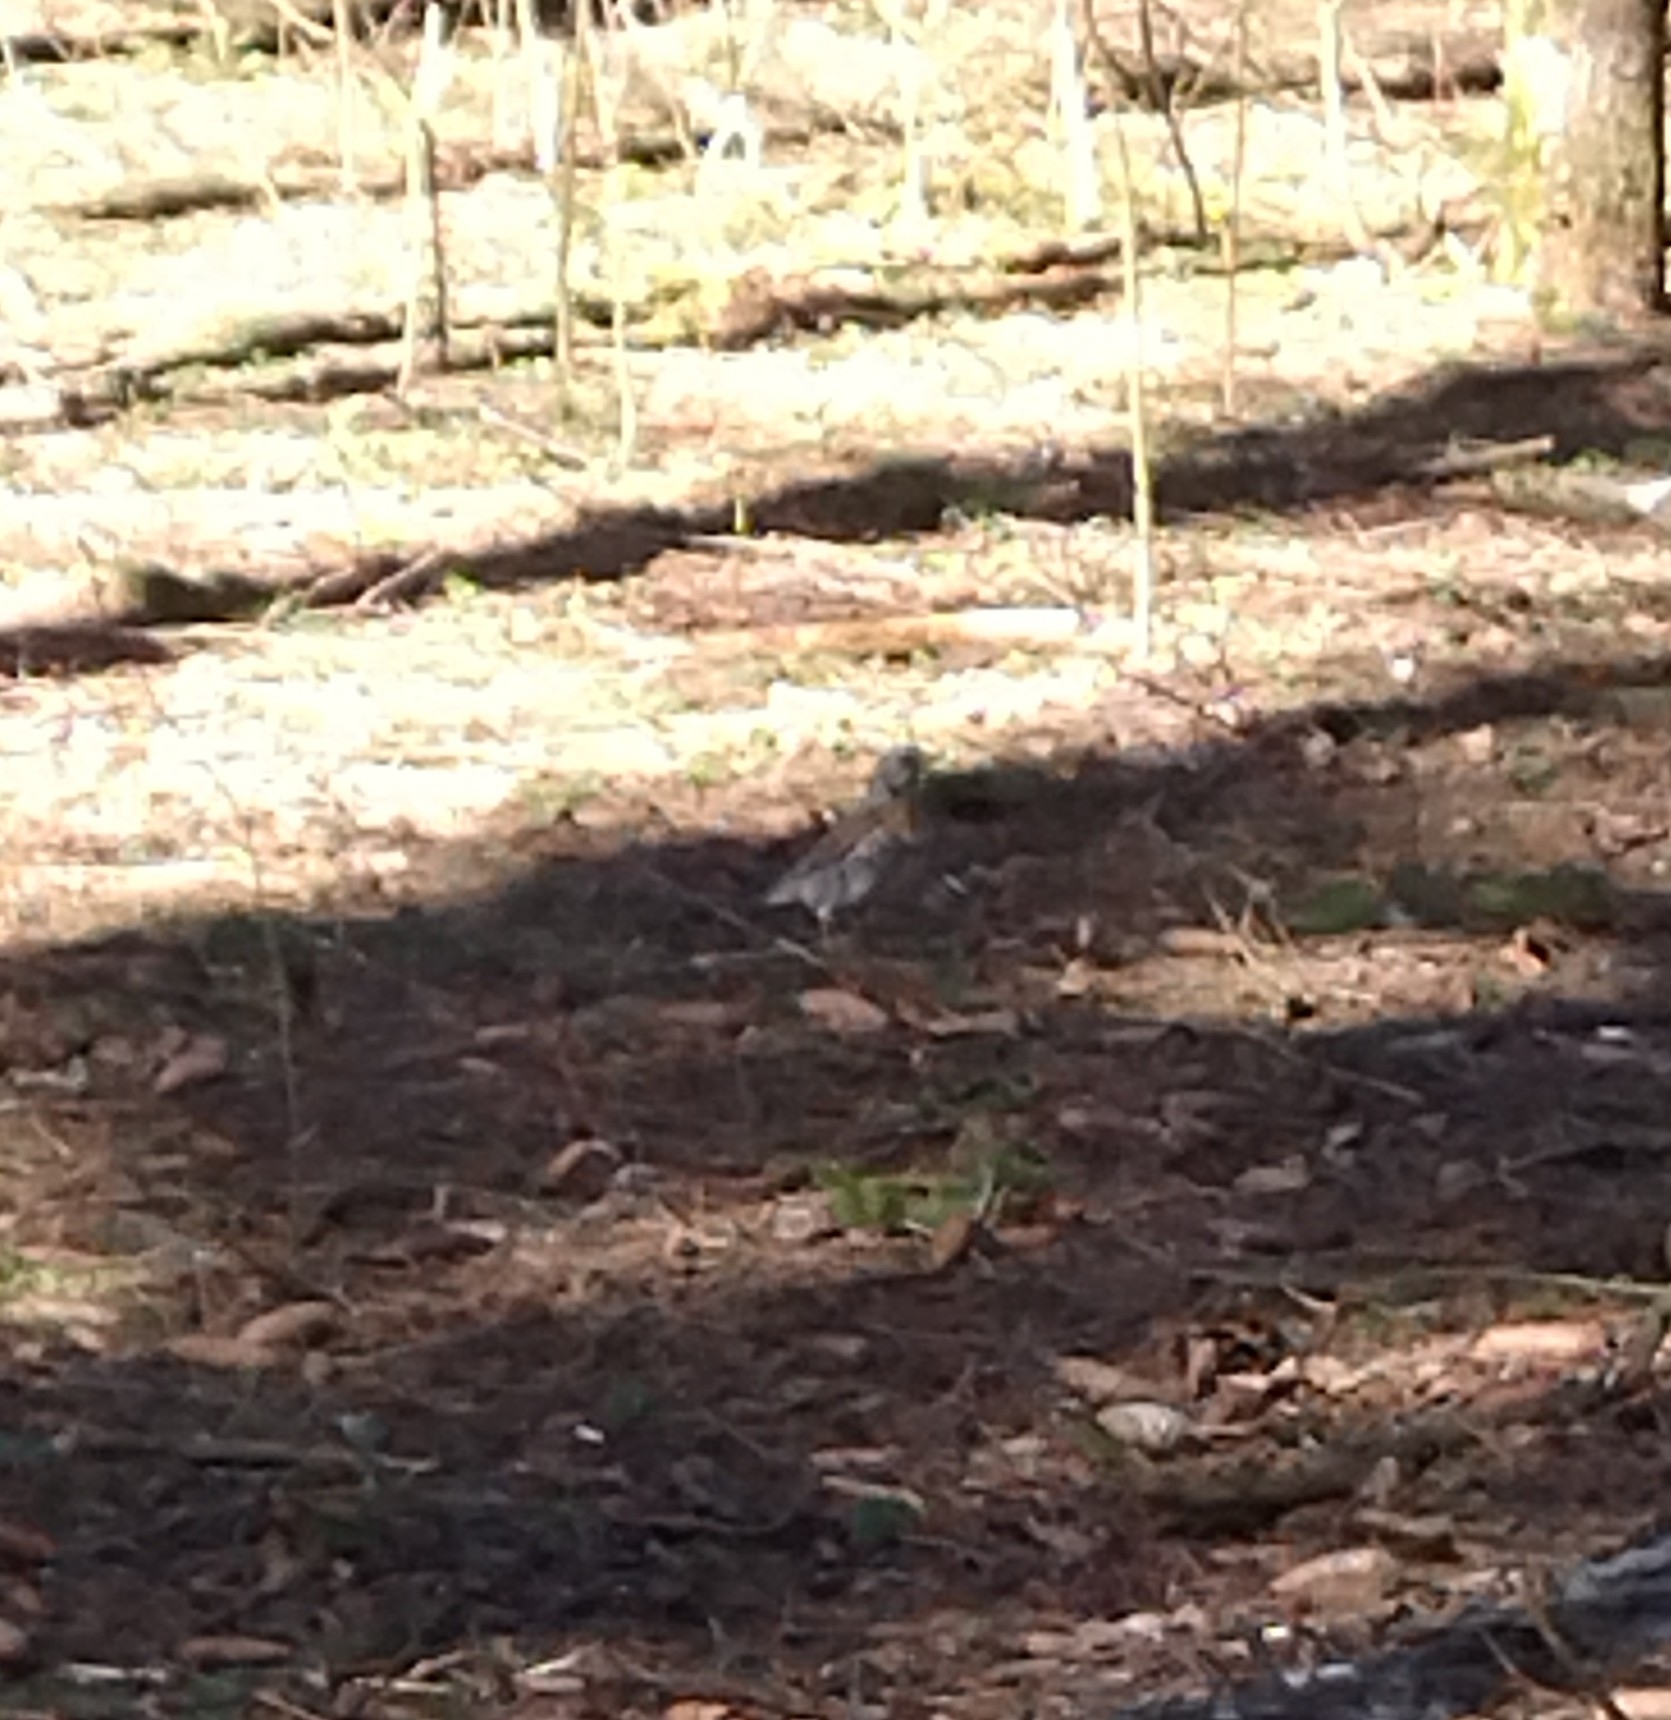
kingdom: Animalia
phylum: Chordata
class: Aves
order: Passeriformes
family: Turdidae
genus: Turdus
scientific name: Turdus pilaris
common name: Fieldfare
